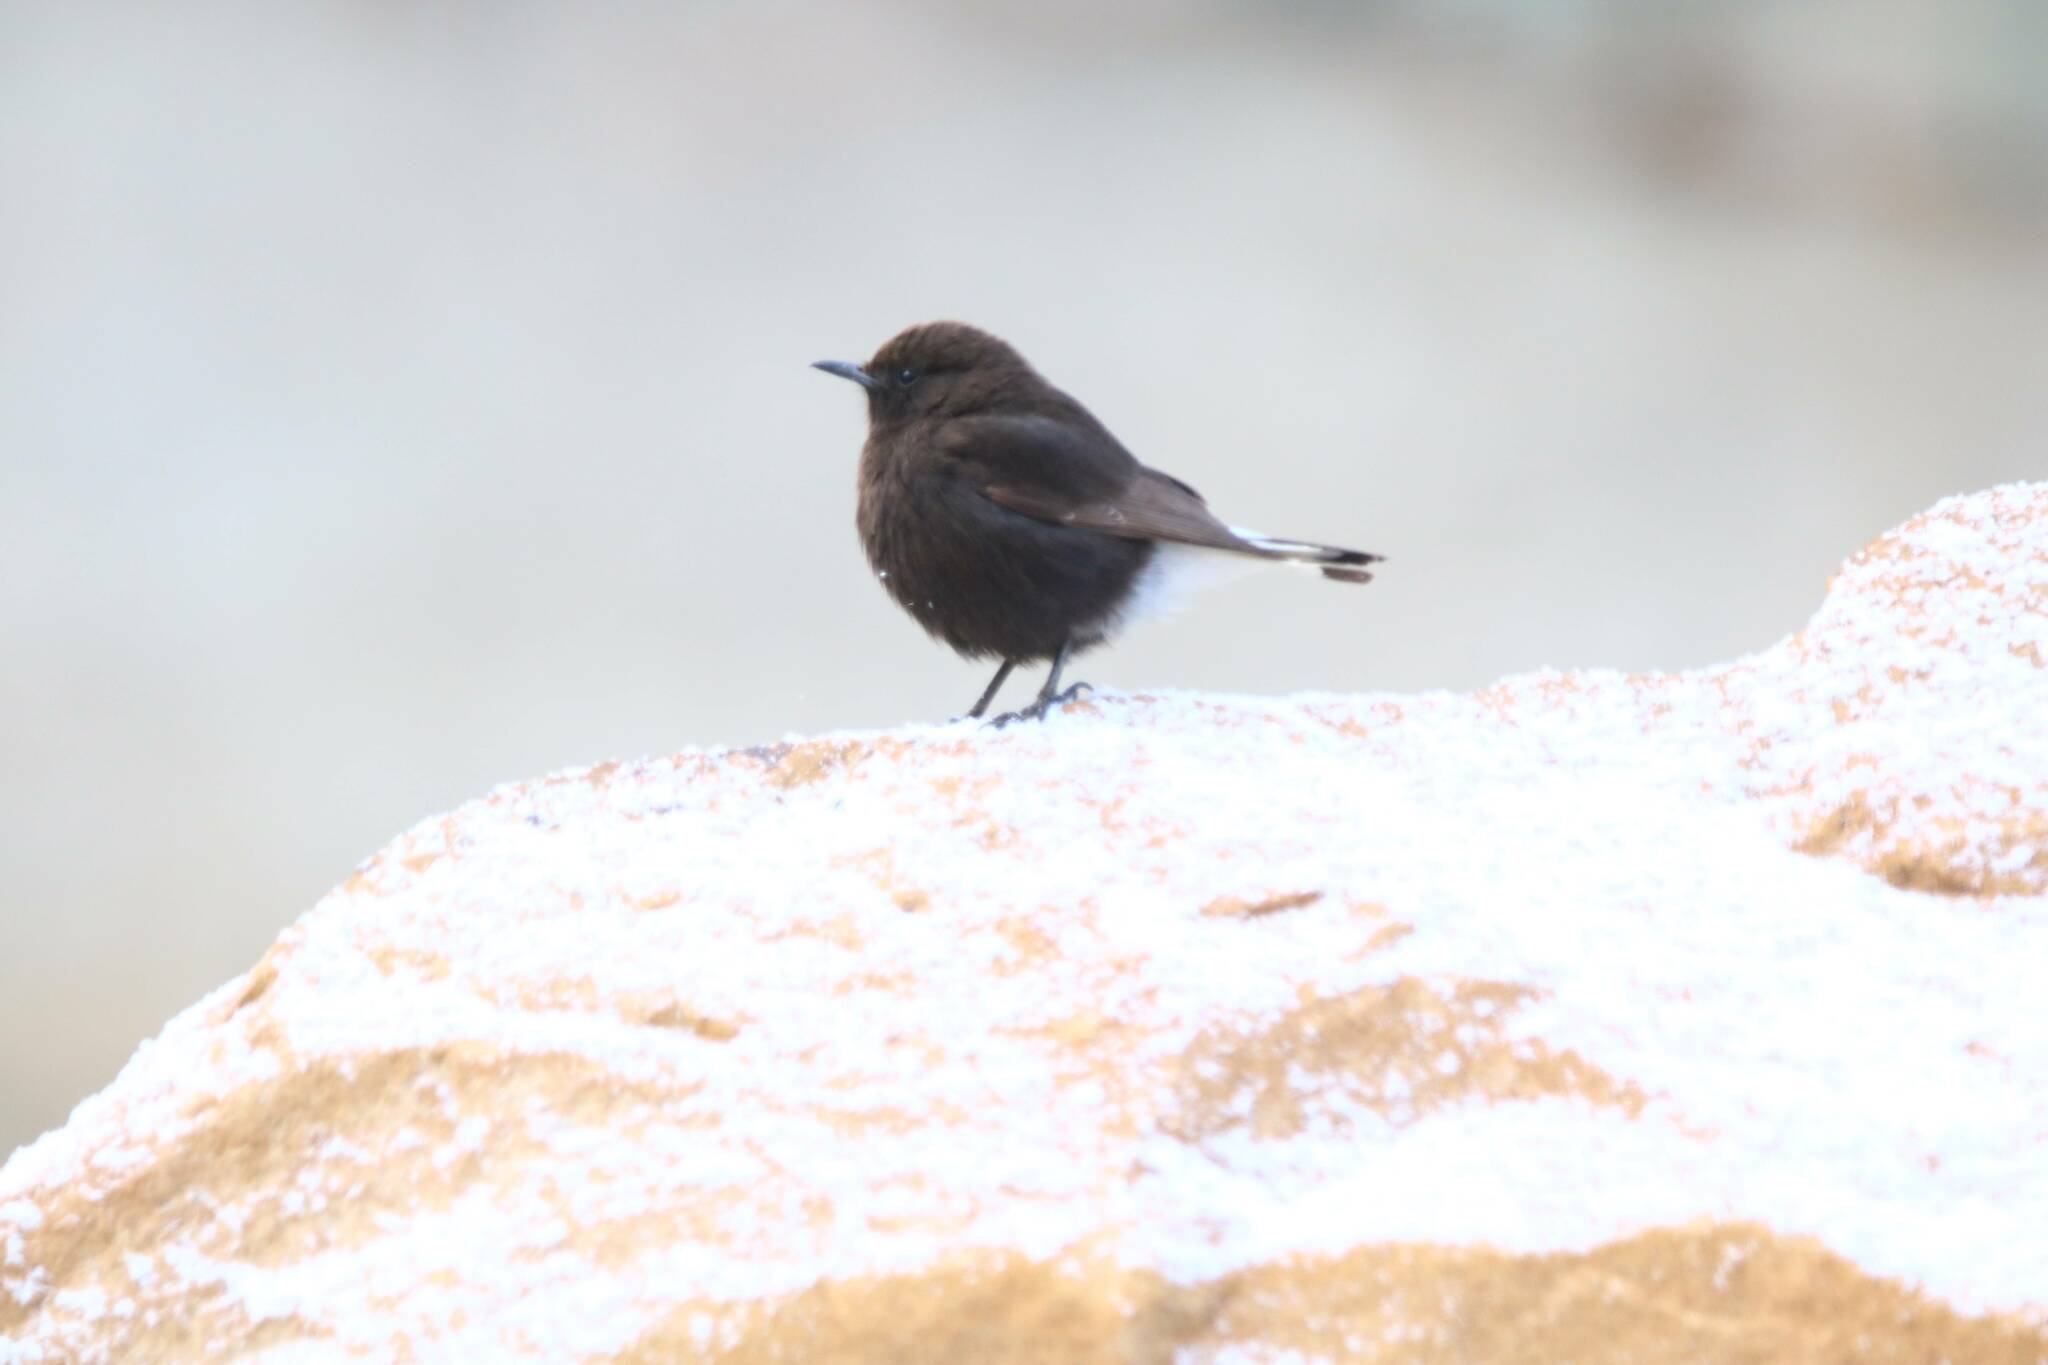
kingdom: Animalia
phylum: Chordata
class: Aves
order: Passeriformes
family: Muscicapidae
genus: Oenanthe
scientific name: Oenanthe leucura
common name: Black wheatear
